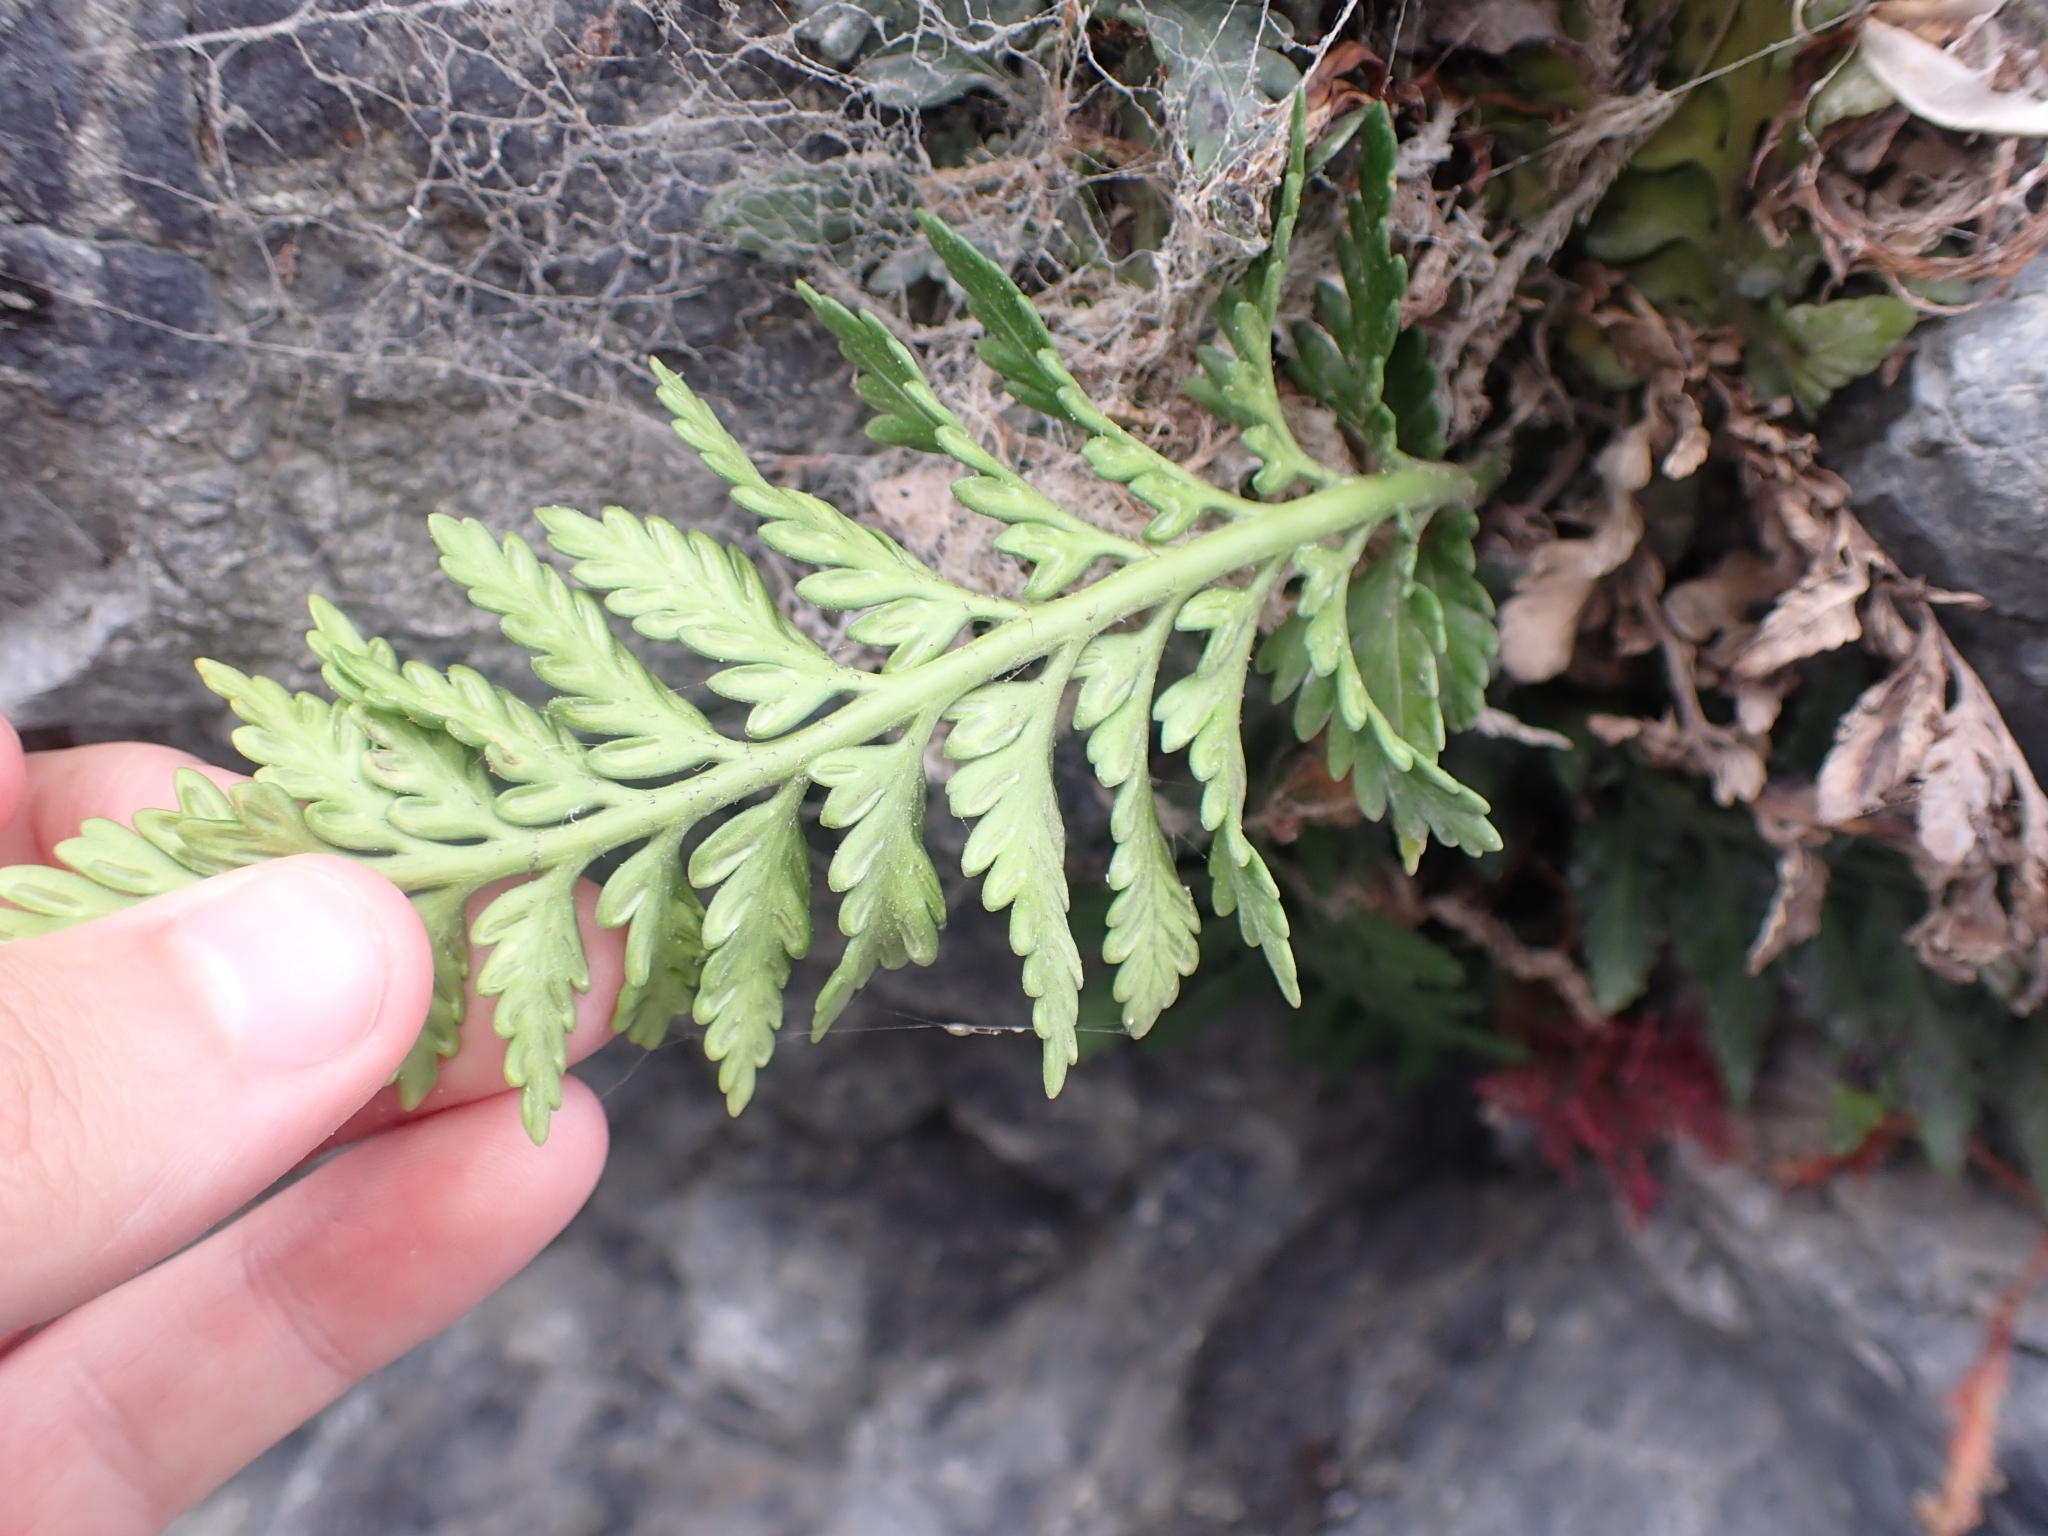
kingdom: Plantae
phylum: Tracheophyta
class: Polypodiopsida
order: Polypodiales
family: Aspleniaceae
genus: Asplenium
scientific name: Asplenium appendiculatum
